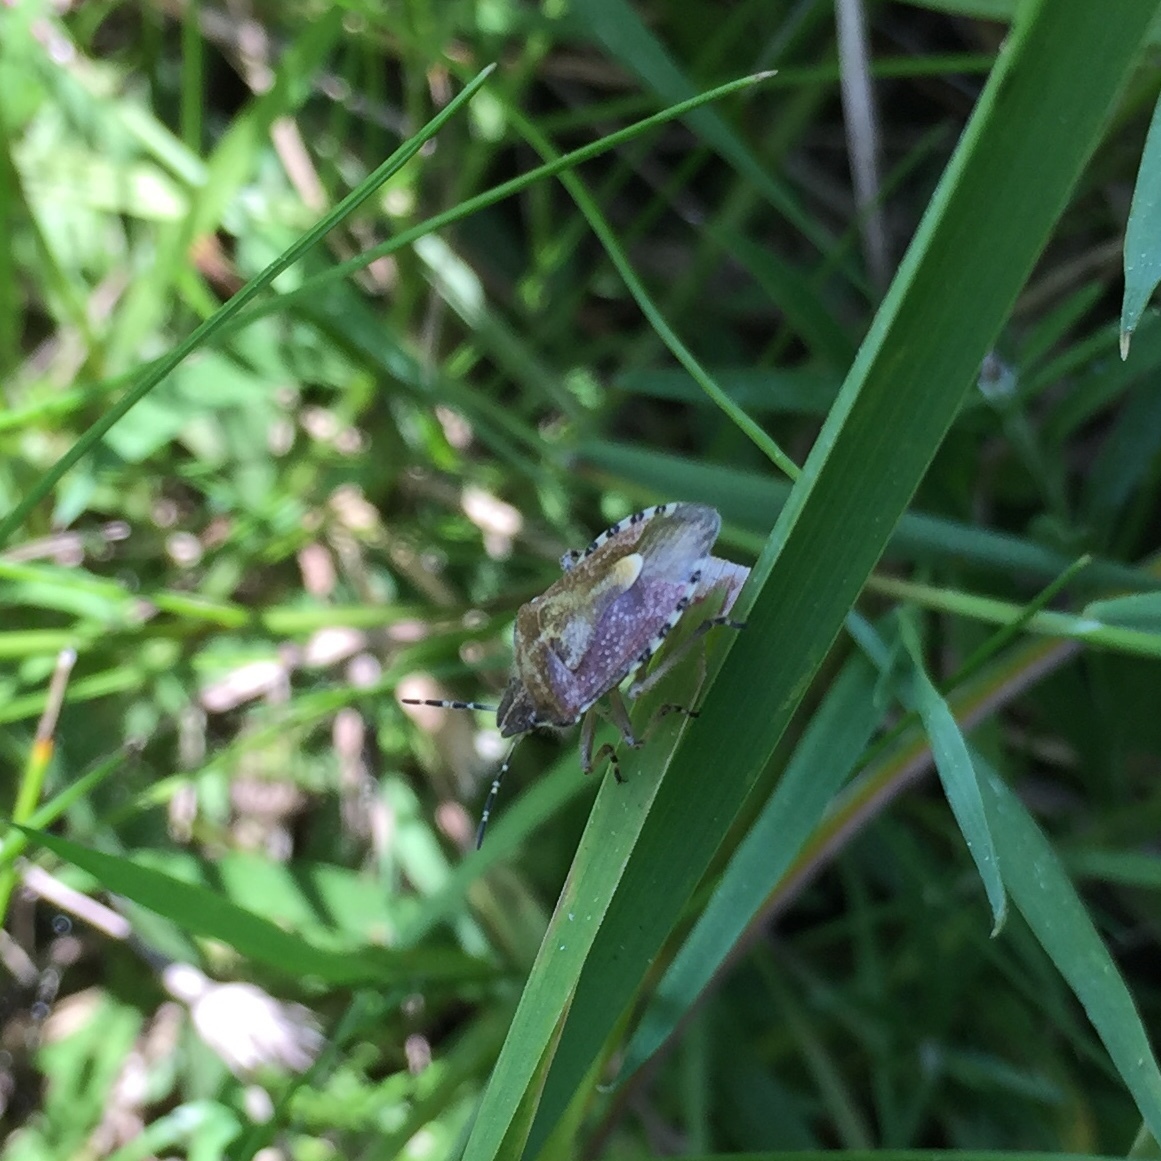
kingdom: Animalia
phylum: Arthropoda
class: Insecta
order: Hemiptera
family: Pentatomidae
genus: Dolycoris
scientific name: Dolycoris baccarum
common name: Sloe bug
